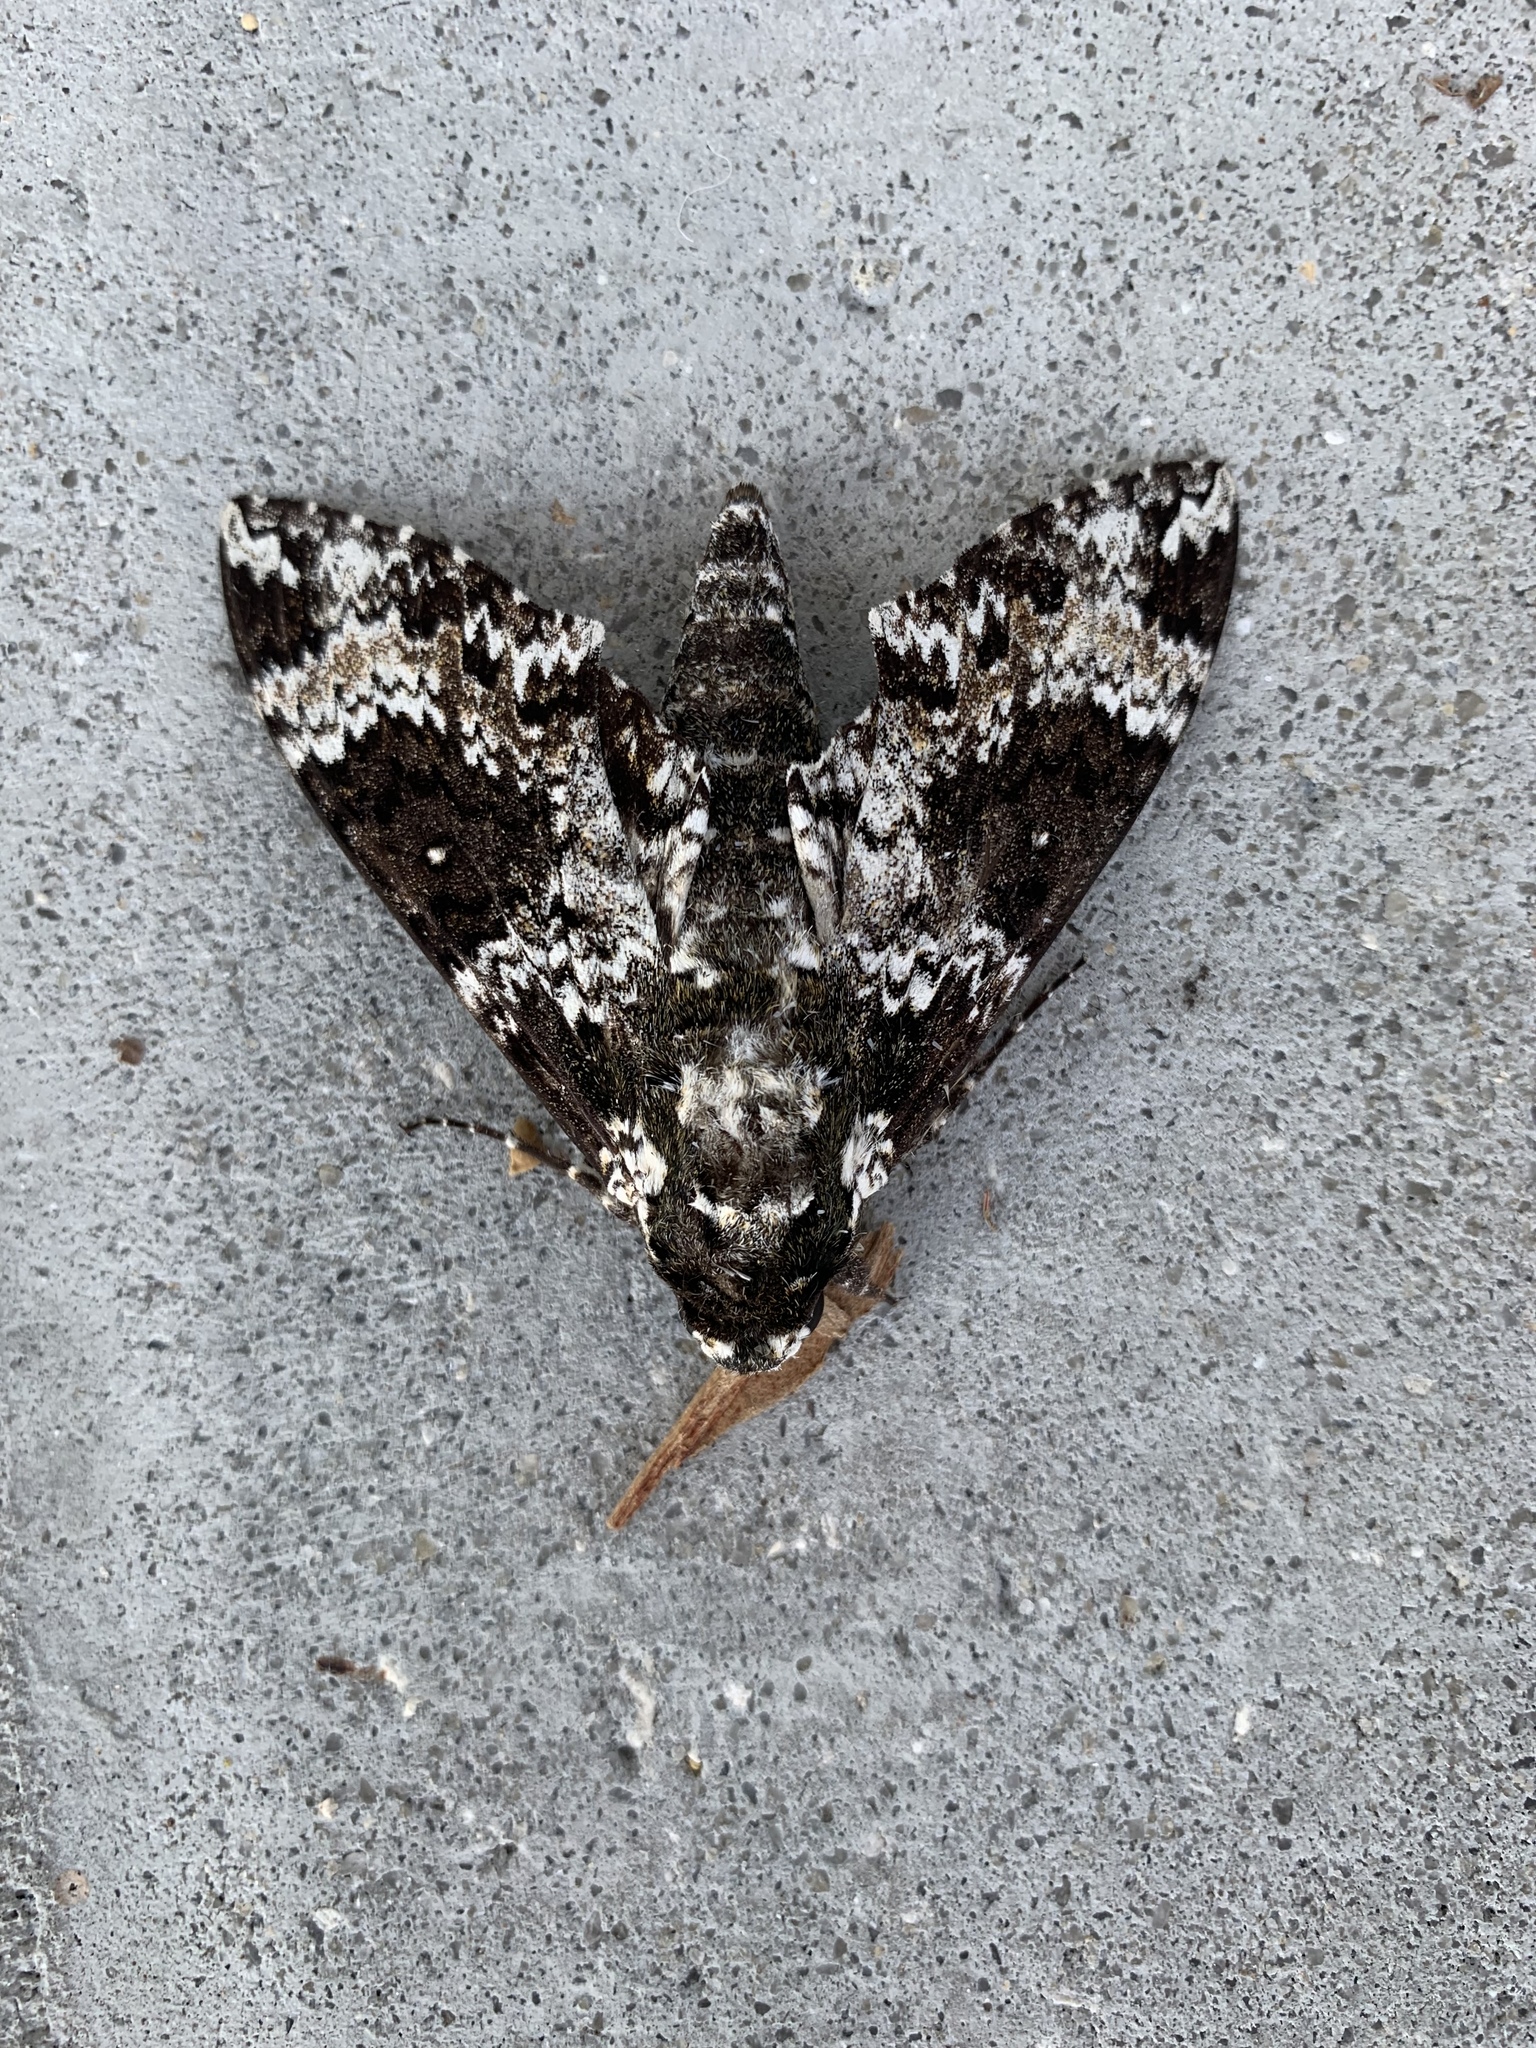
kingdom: Animalia
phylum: Arthropoda
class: Insecta
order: Lepidoptera
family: Sphingidae
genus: Manduca
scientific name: Manduca rustica
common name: Rustic sphinx
